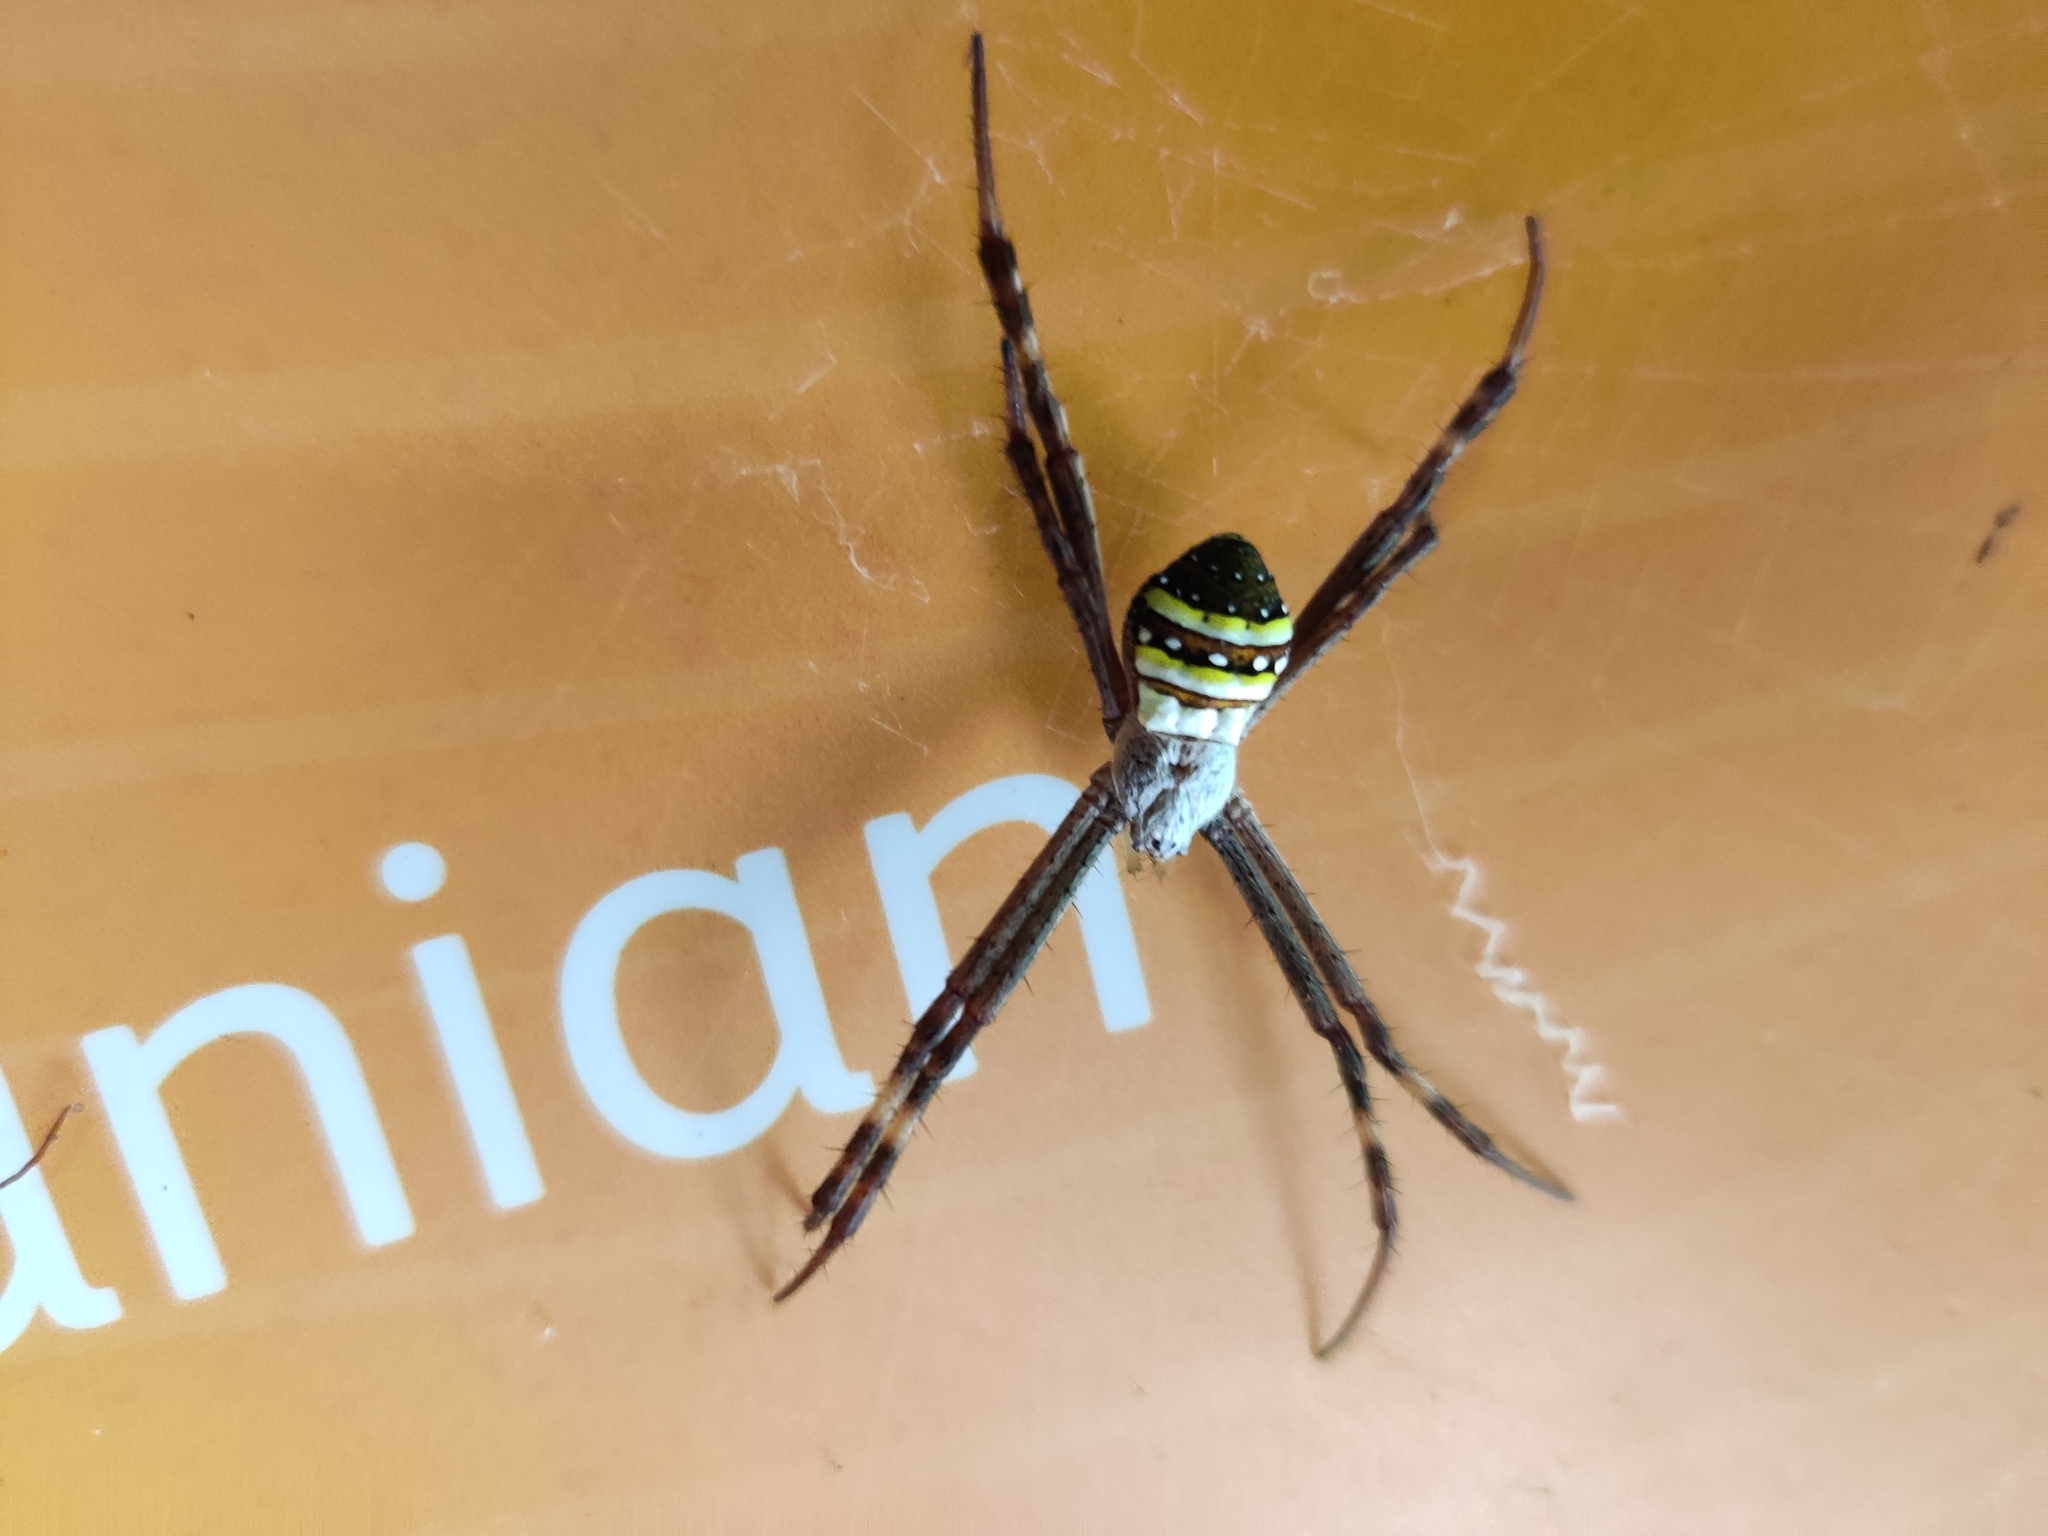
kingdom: Animalia
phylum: Arthropoda
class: Arachnida
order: Araneae
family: Araneidae
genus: Argiope
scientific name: Argiope keyserlingi
